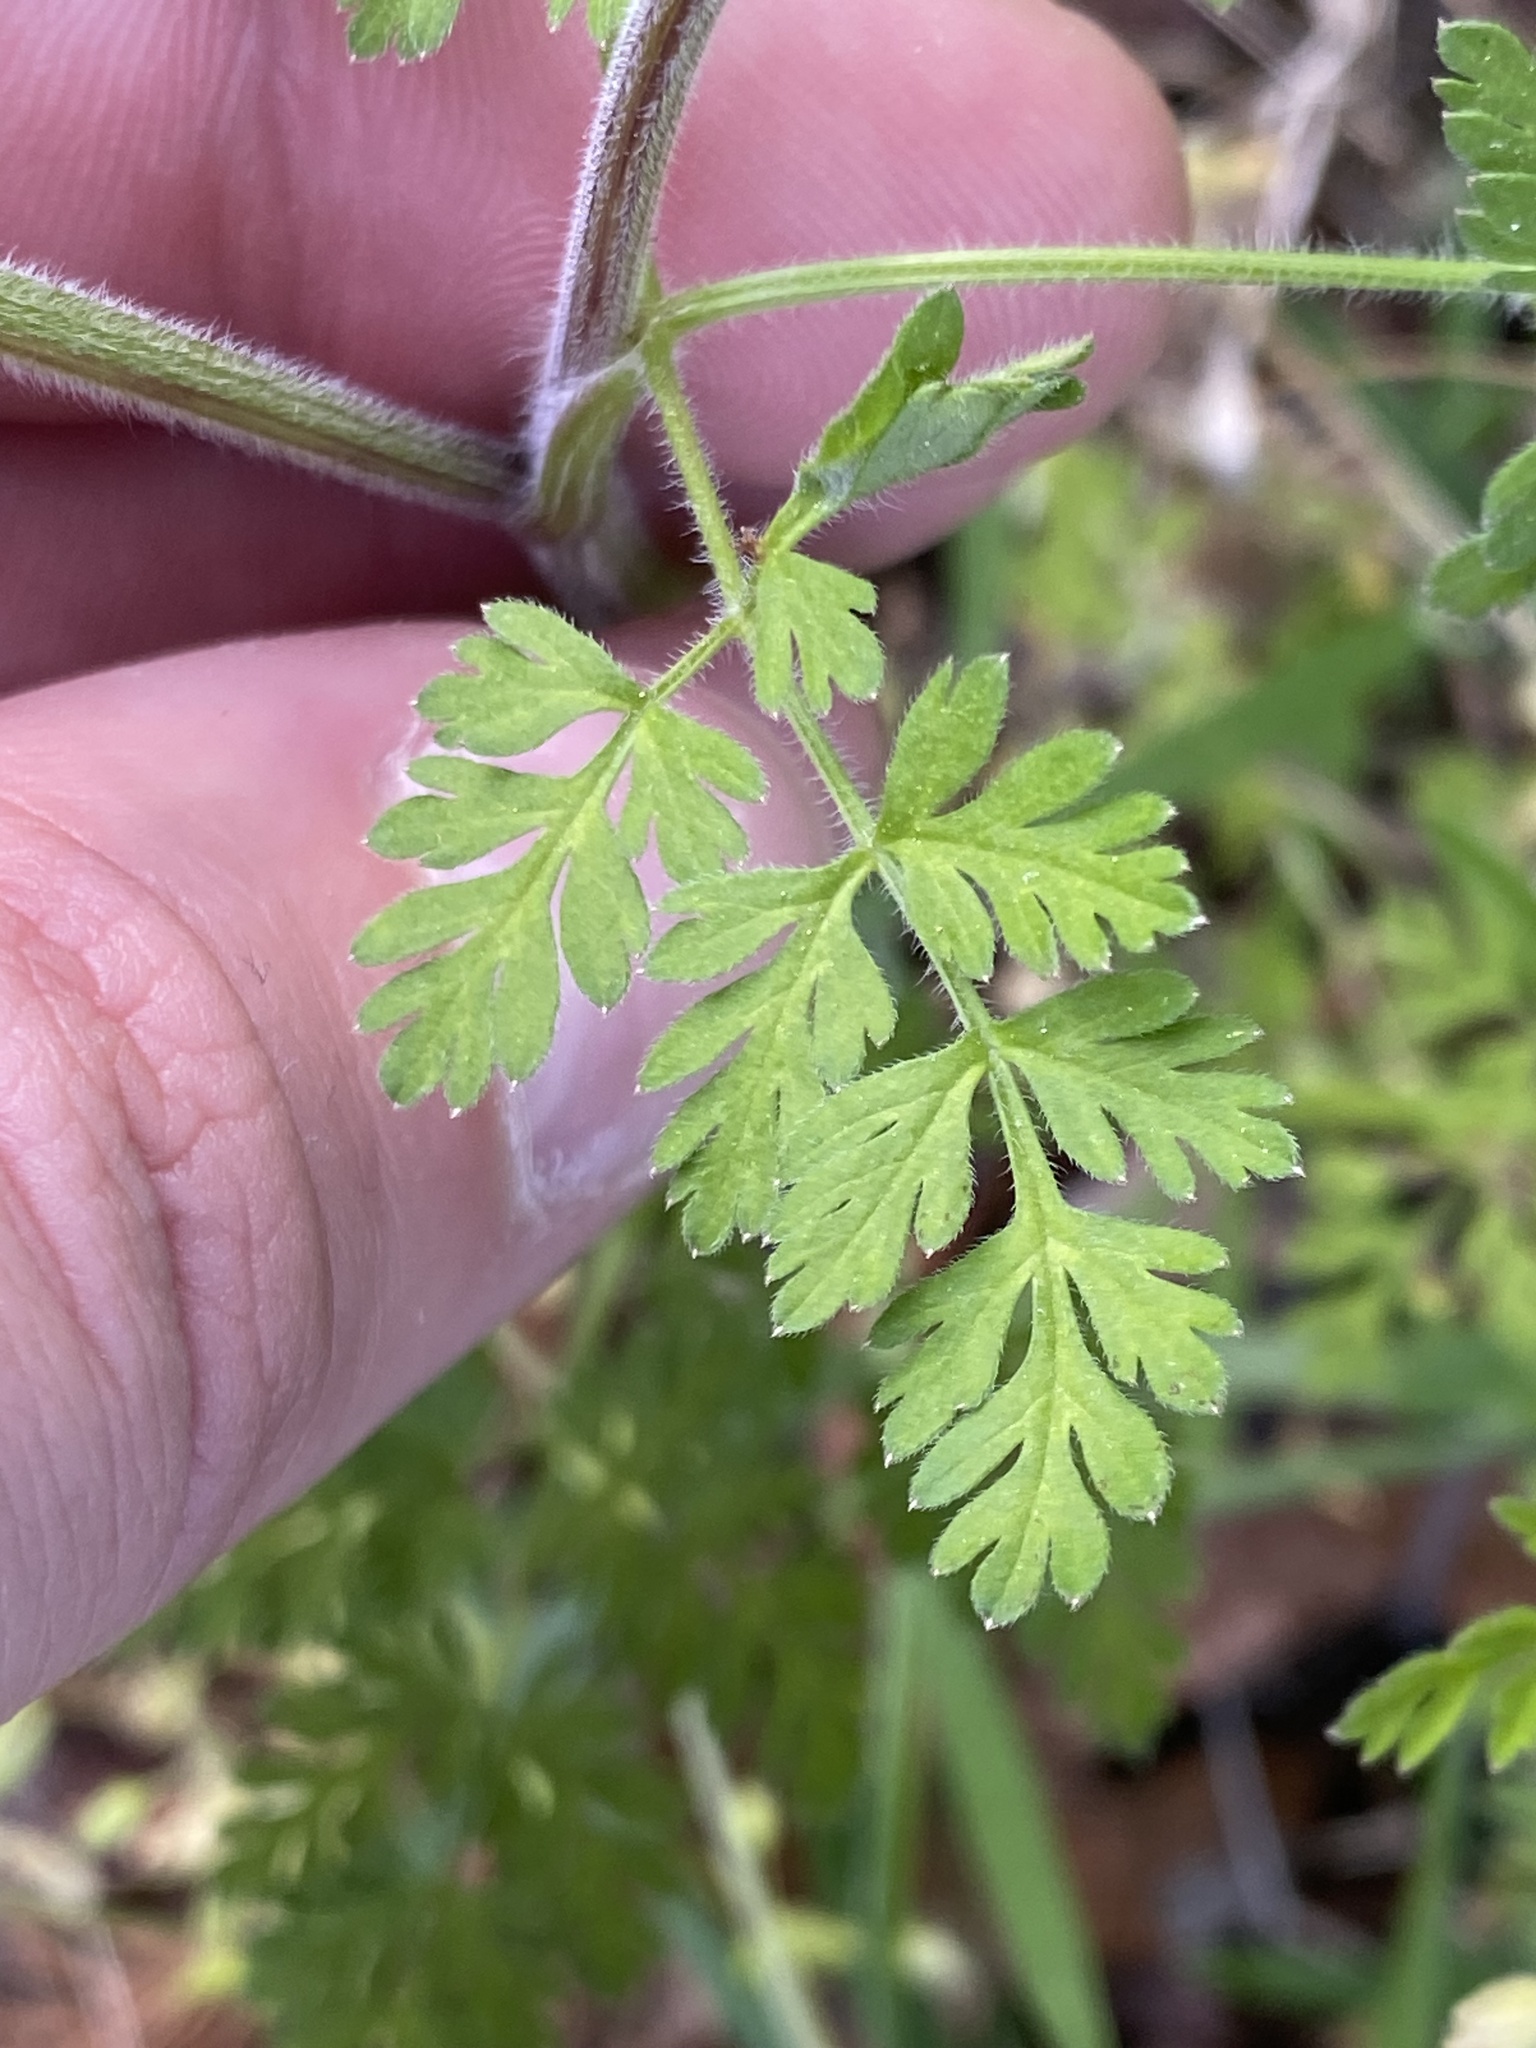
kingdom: Plantae
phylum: Tracheophyta
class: Magnoliopsida
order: Apiales
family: Apiaceae
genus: Chaerophyllum
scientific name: Chaerophyllum tainturieri
